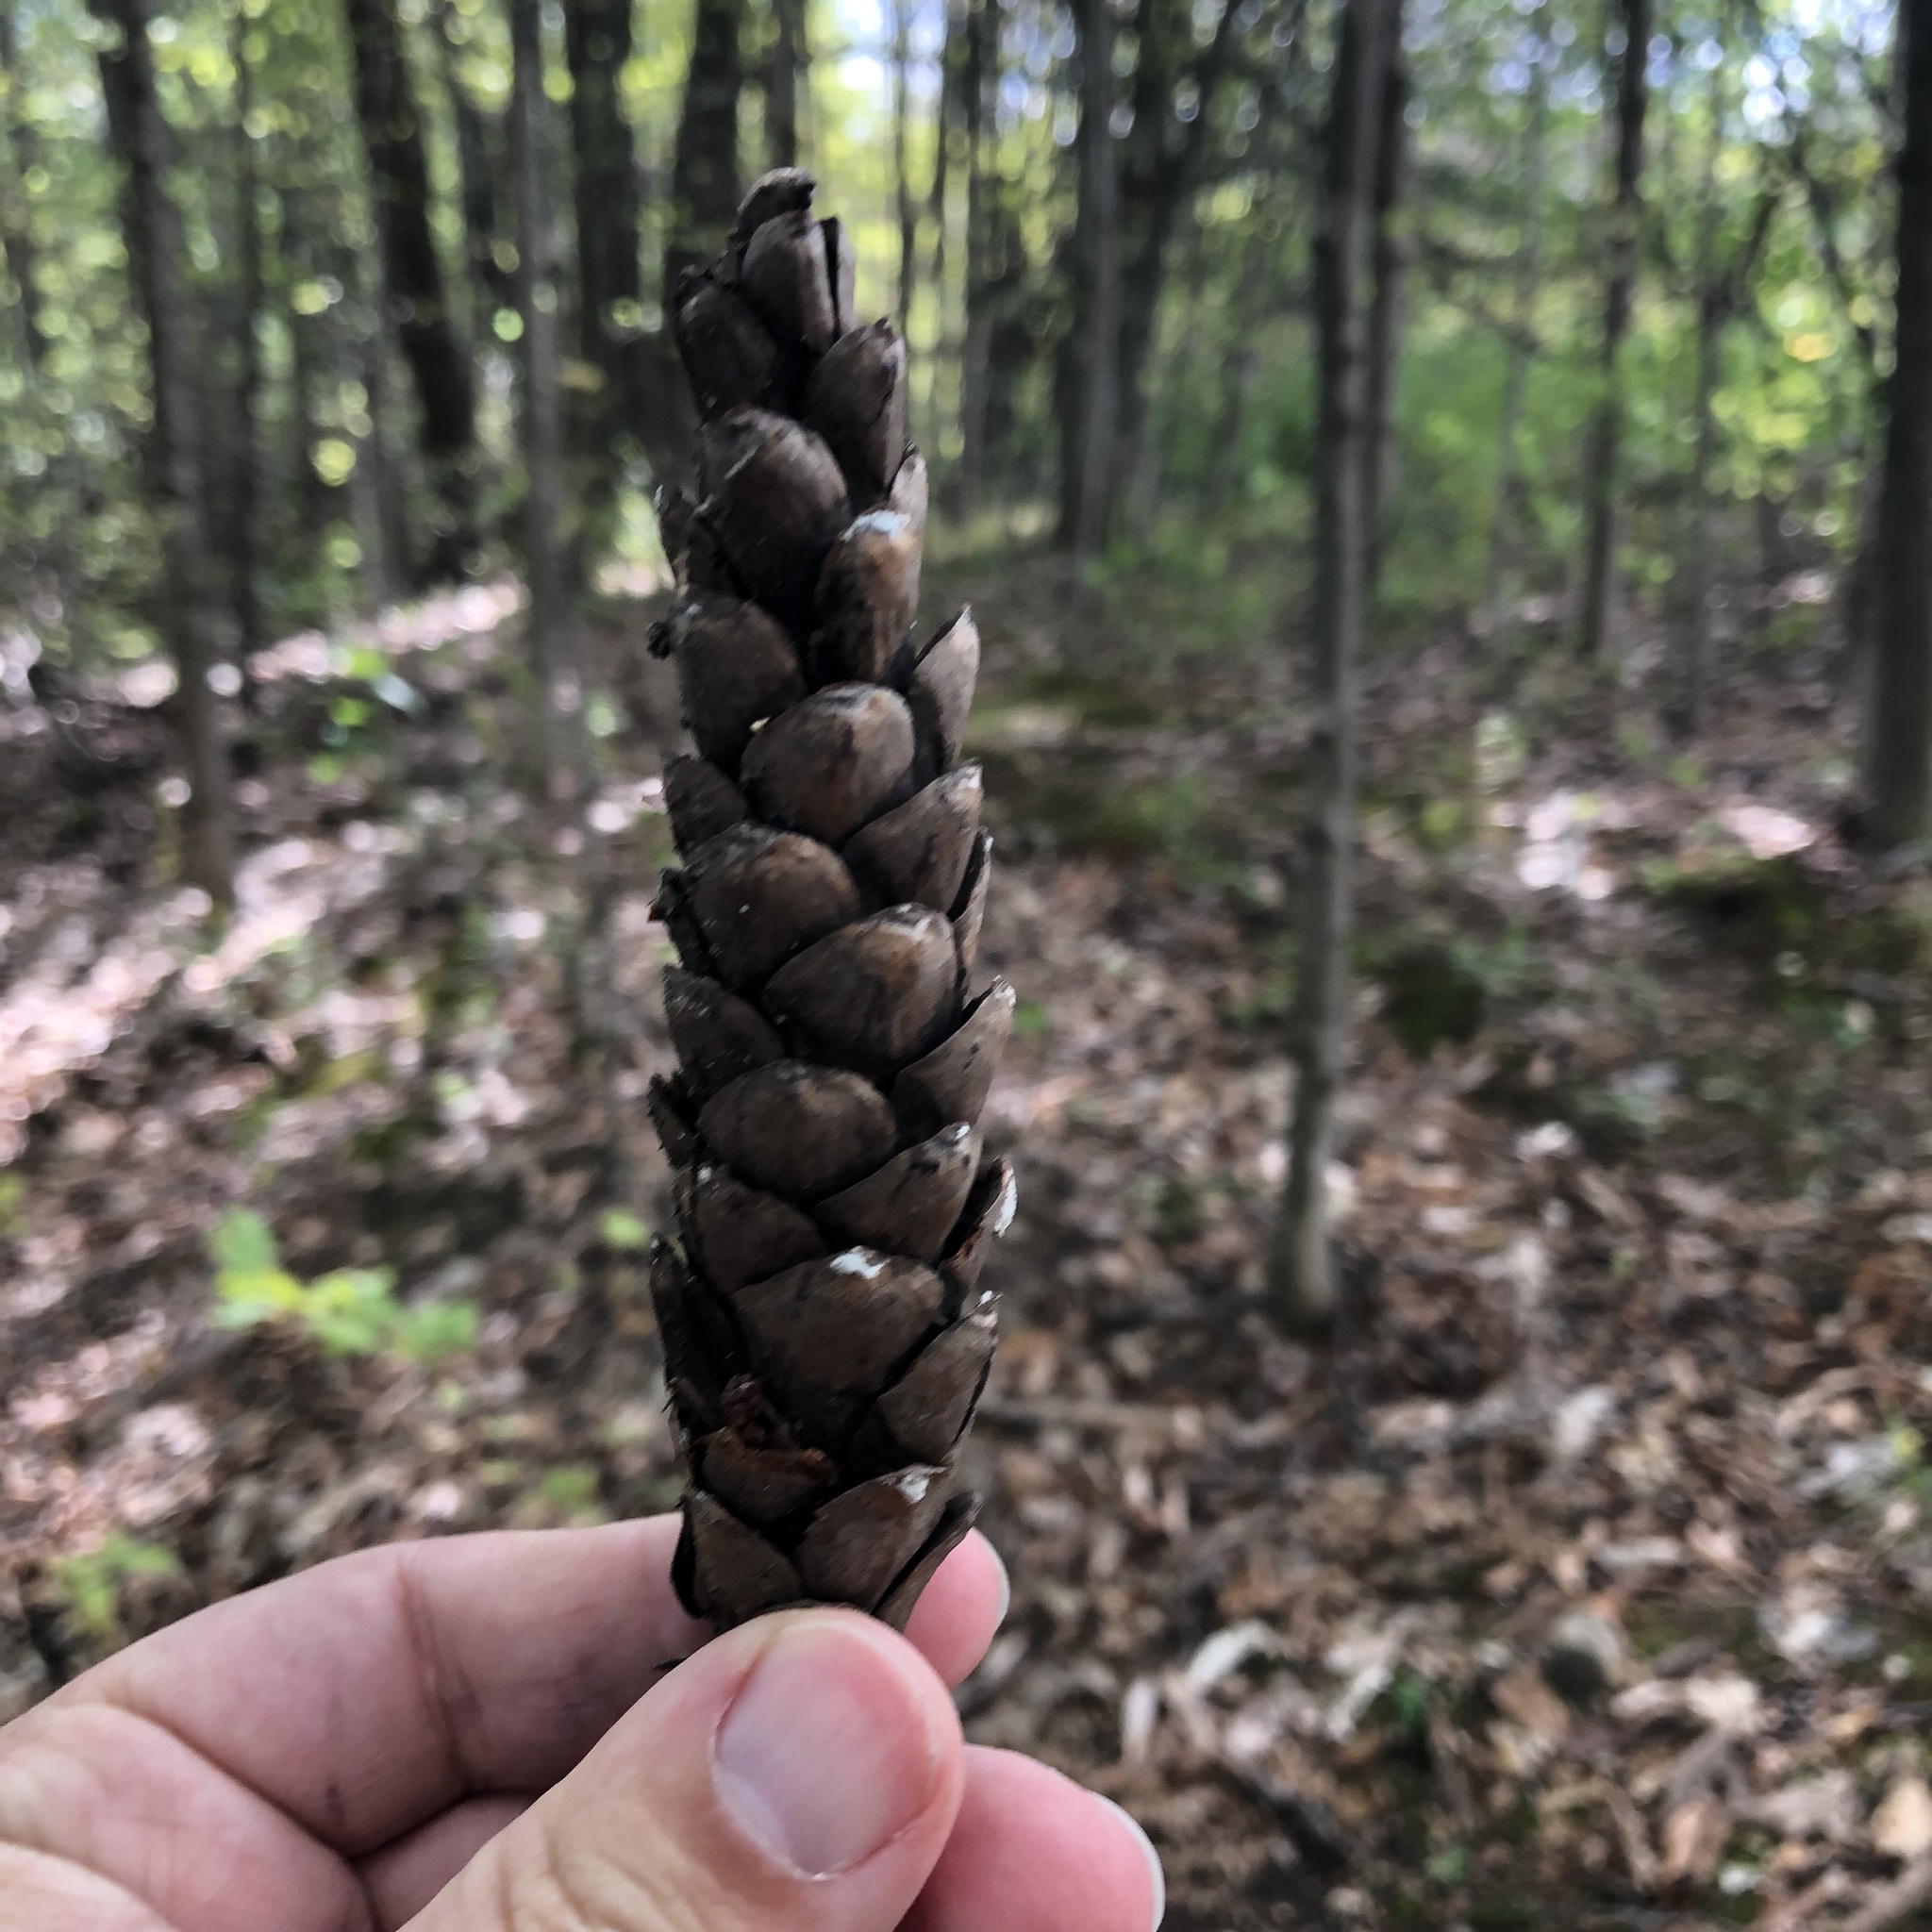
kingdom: Plantae
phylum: Tracheophyta
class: Pinopsida
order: Pinales
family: Pinaceae
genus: Pinus
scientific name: Pinus strobus
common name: Weymouth pine
